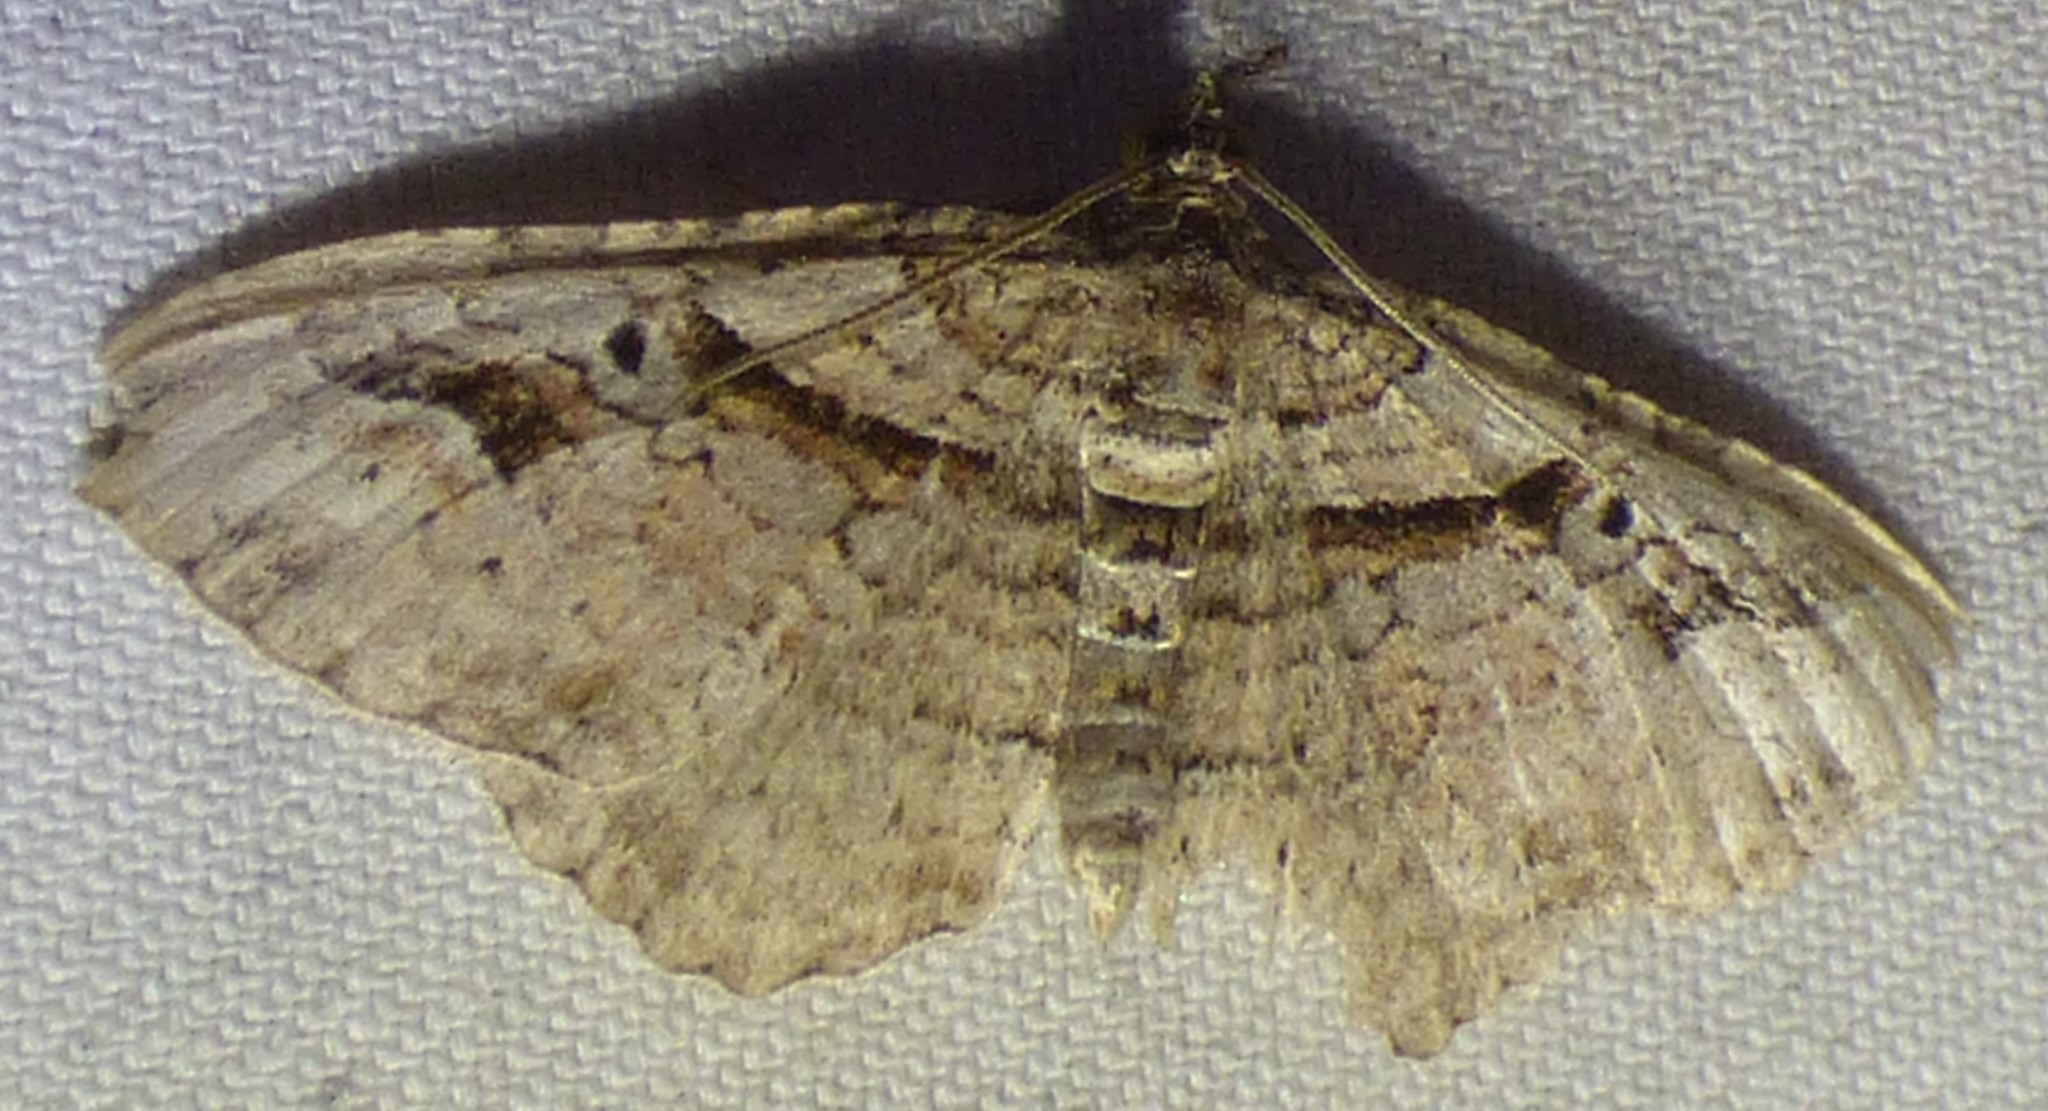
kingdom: Animalia
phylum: Arthropoda
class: Insecta
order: Lepidoptera
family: Geometridae
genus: Costaconvexa
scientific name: Costaconvexa centrostrigaria
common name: Bent-line carpet
